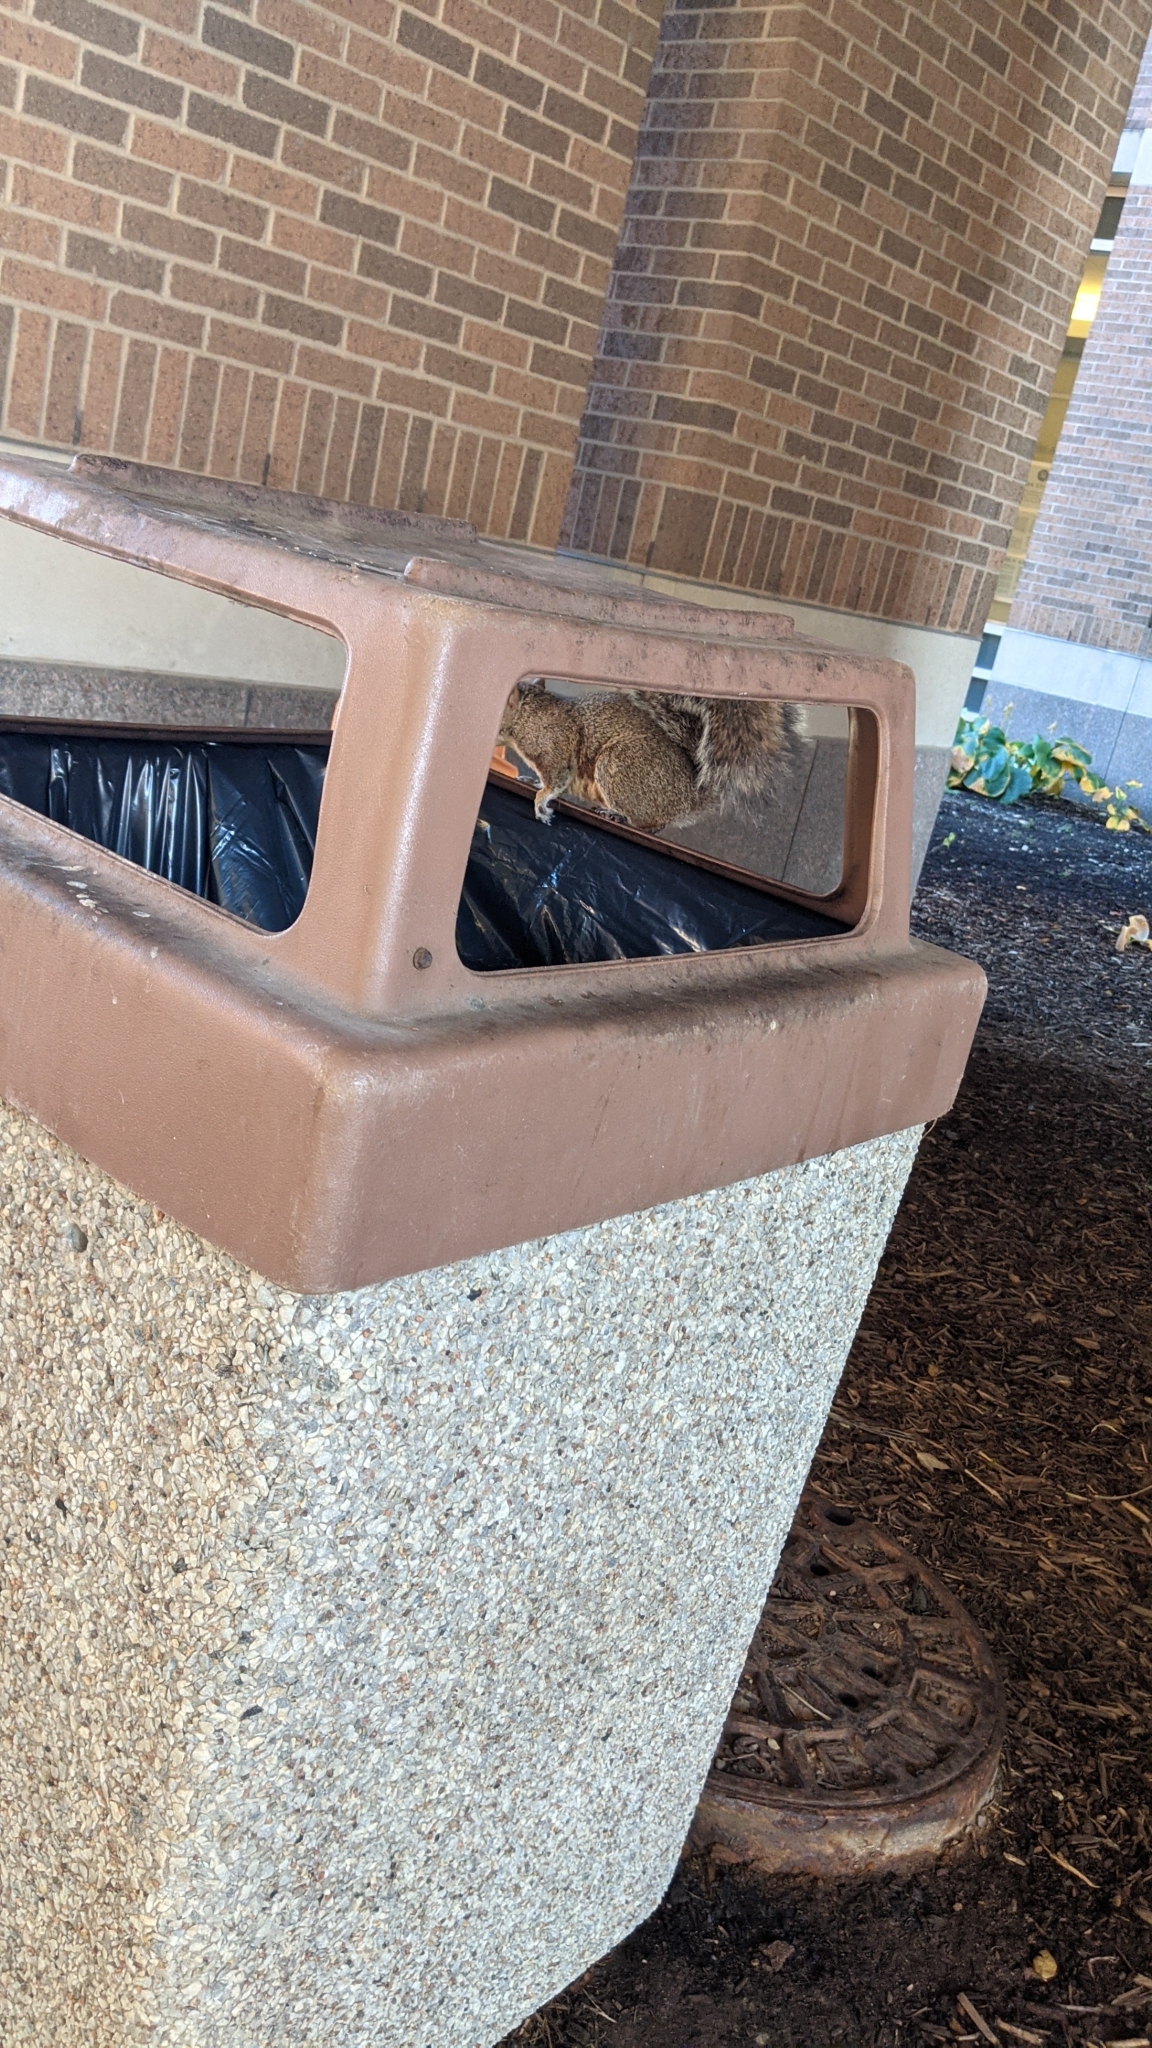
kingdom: Animalia
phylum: Chordata
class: Mammalia
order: Rodentia
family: Sciuridae
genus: Sciurus
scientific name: Sciurus carolinensis
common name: Eastern gray squirrel
